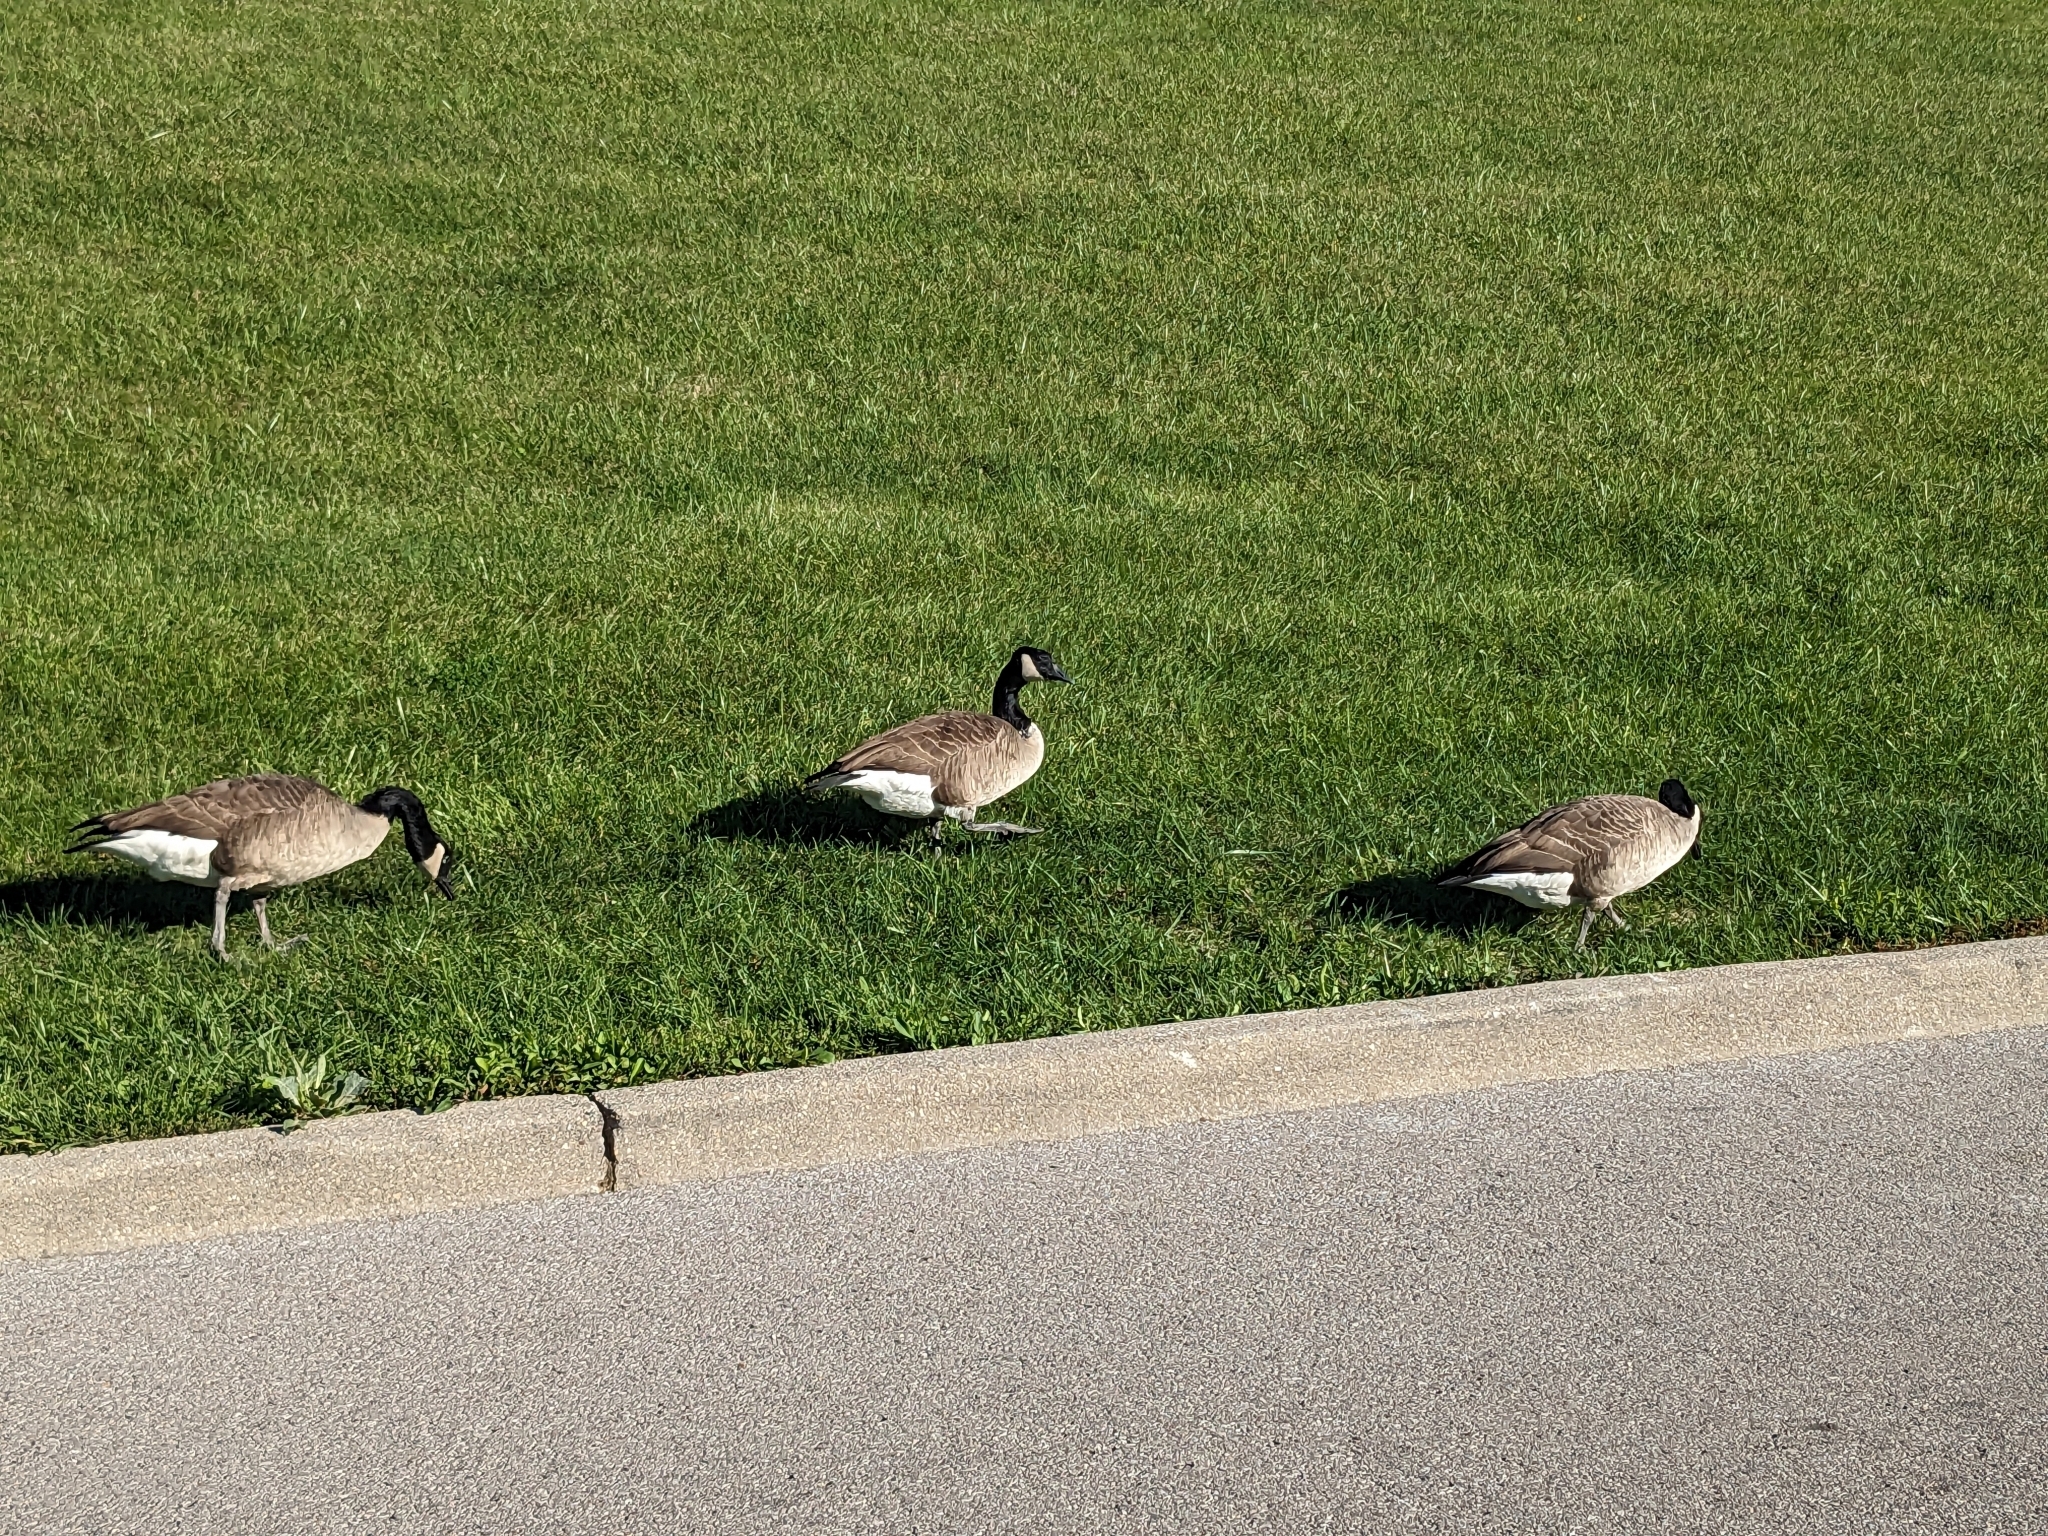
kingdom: Animalia
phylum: Chordata
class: Aves
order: Anseriformes
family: Anatidae
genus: Branta
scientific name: Branta canadensis
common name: Canada goose
